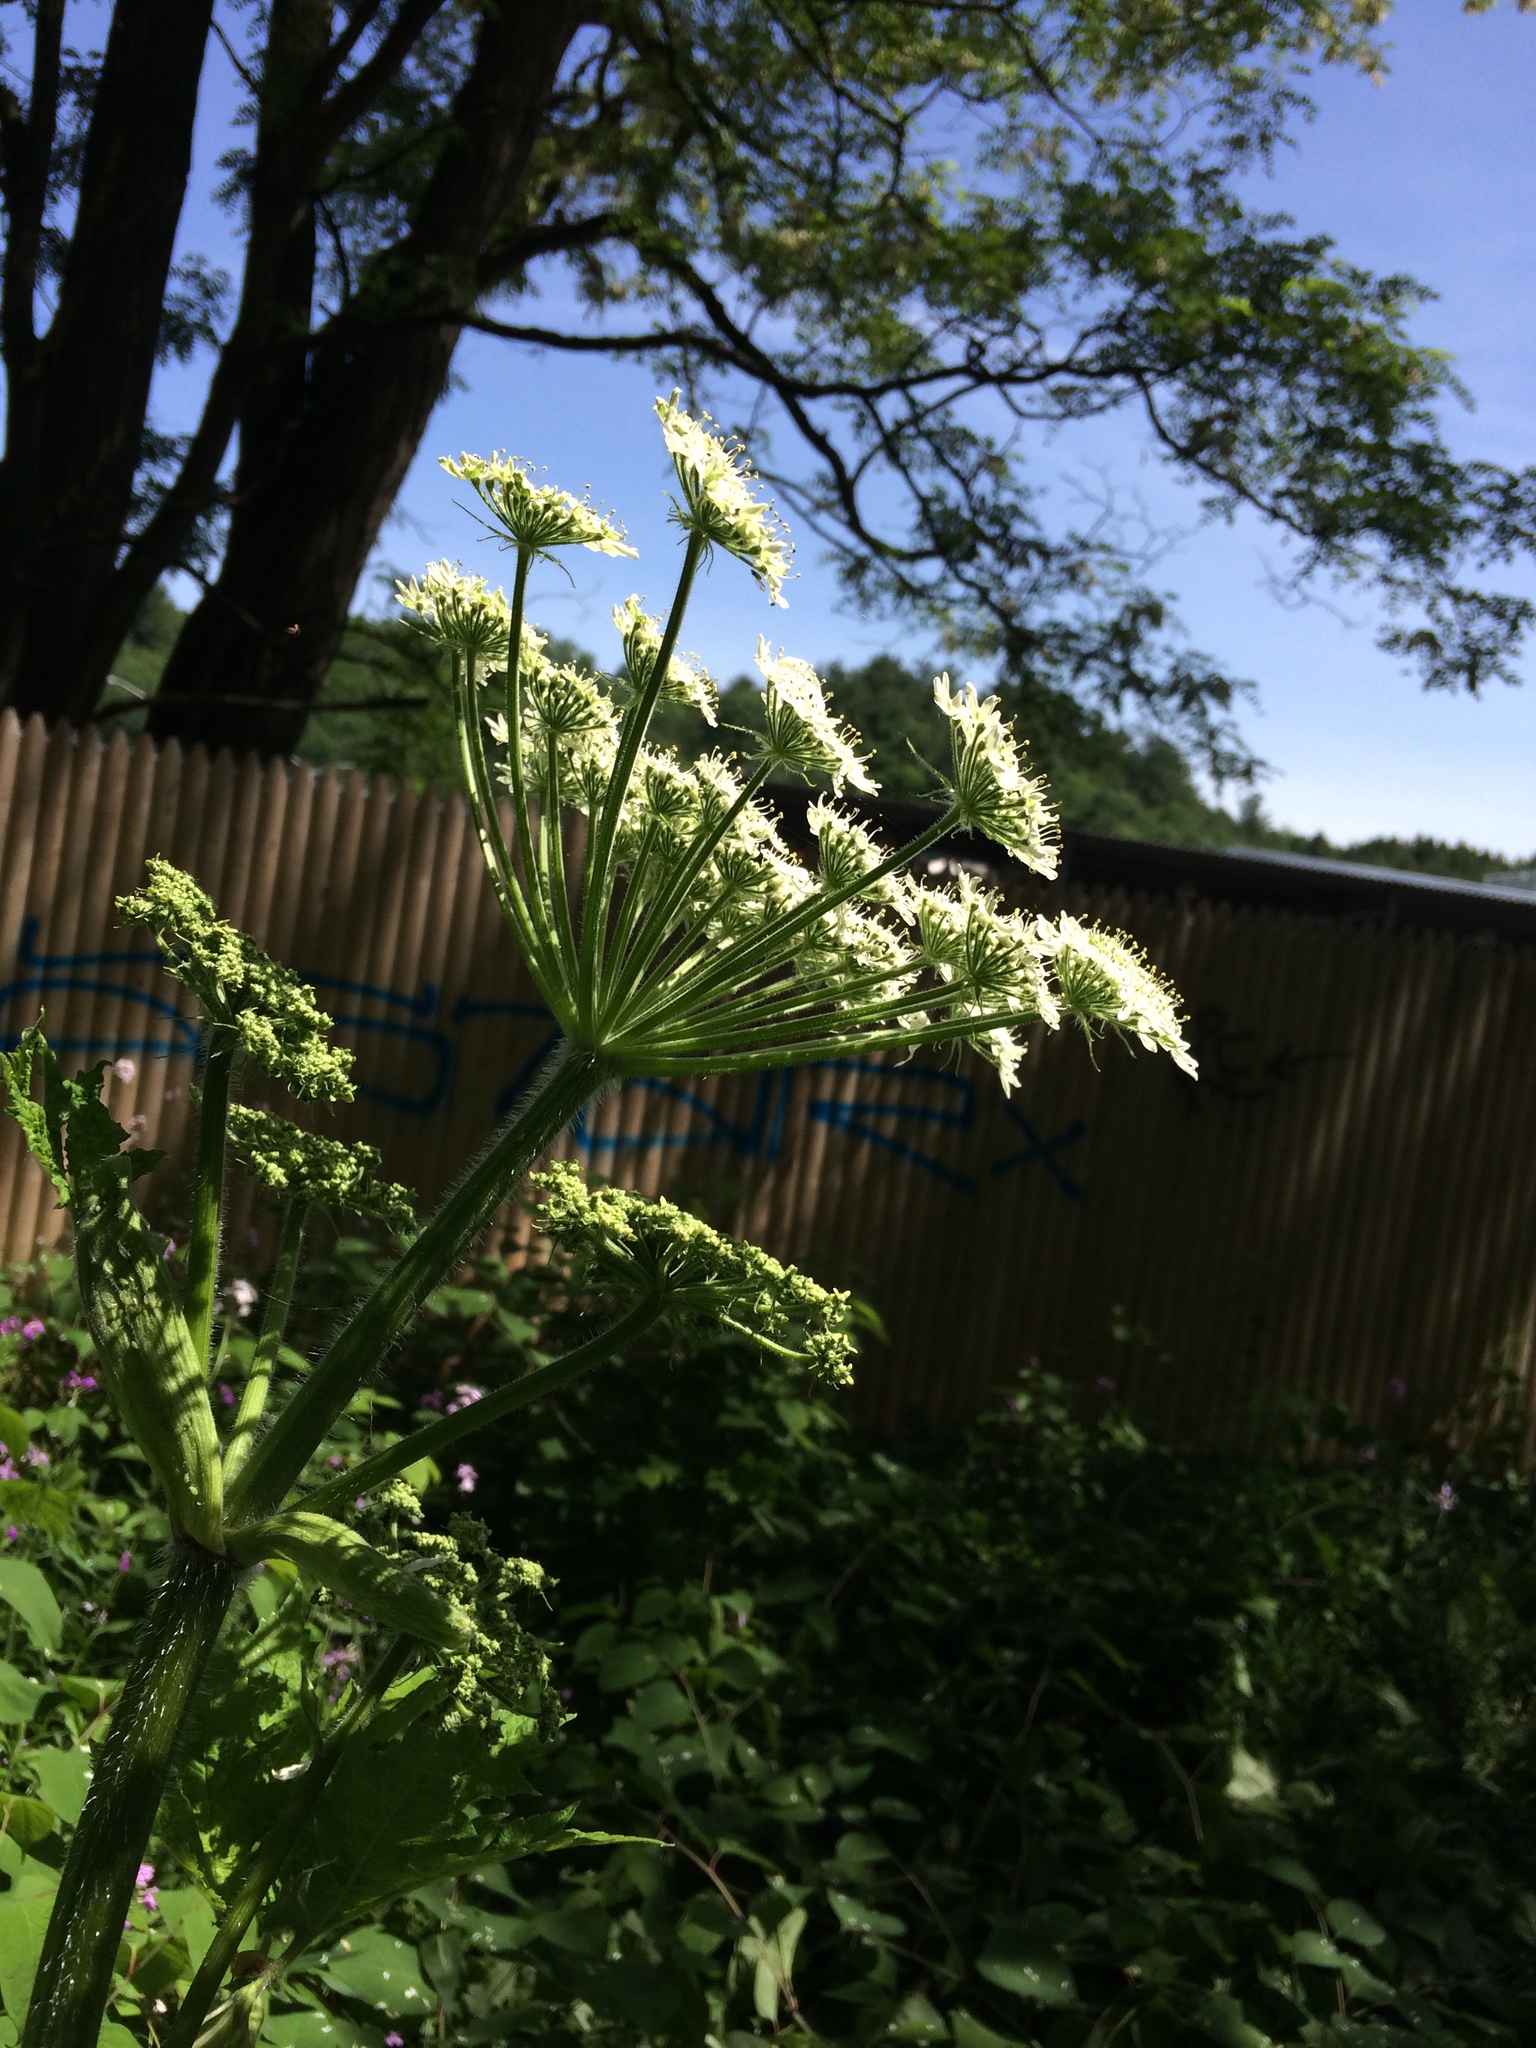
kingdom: Plantae
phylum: Tracheophyta
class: Magnoliopsida
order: Apiales
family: Apiaceae
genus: Heracleum
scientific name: Heracleum maximum
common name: American cow parsnip
